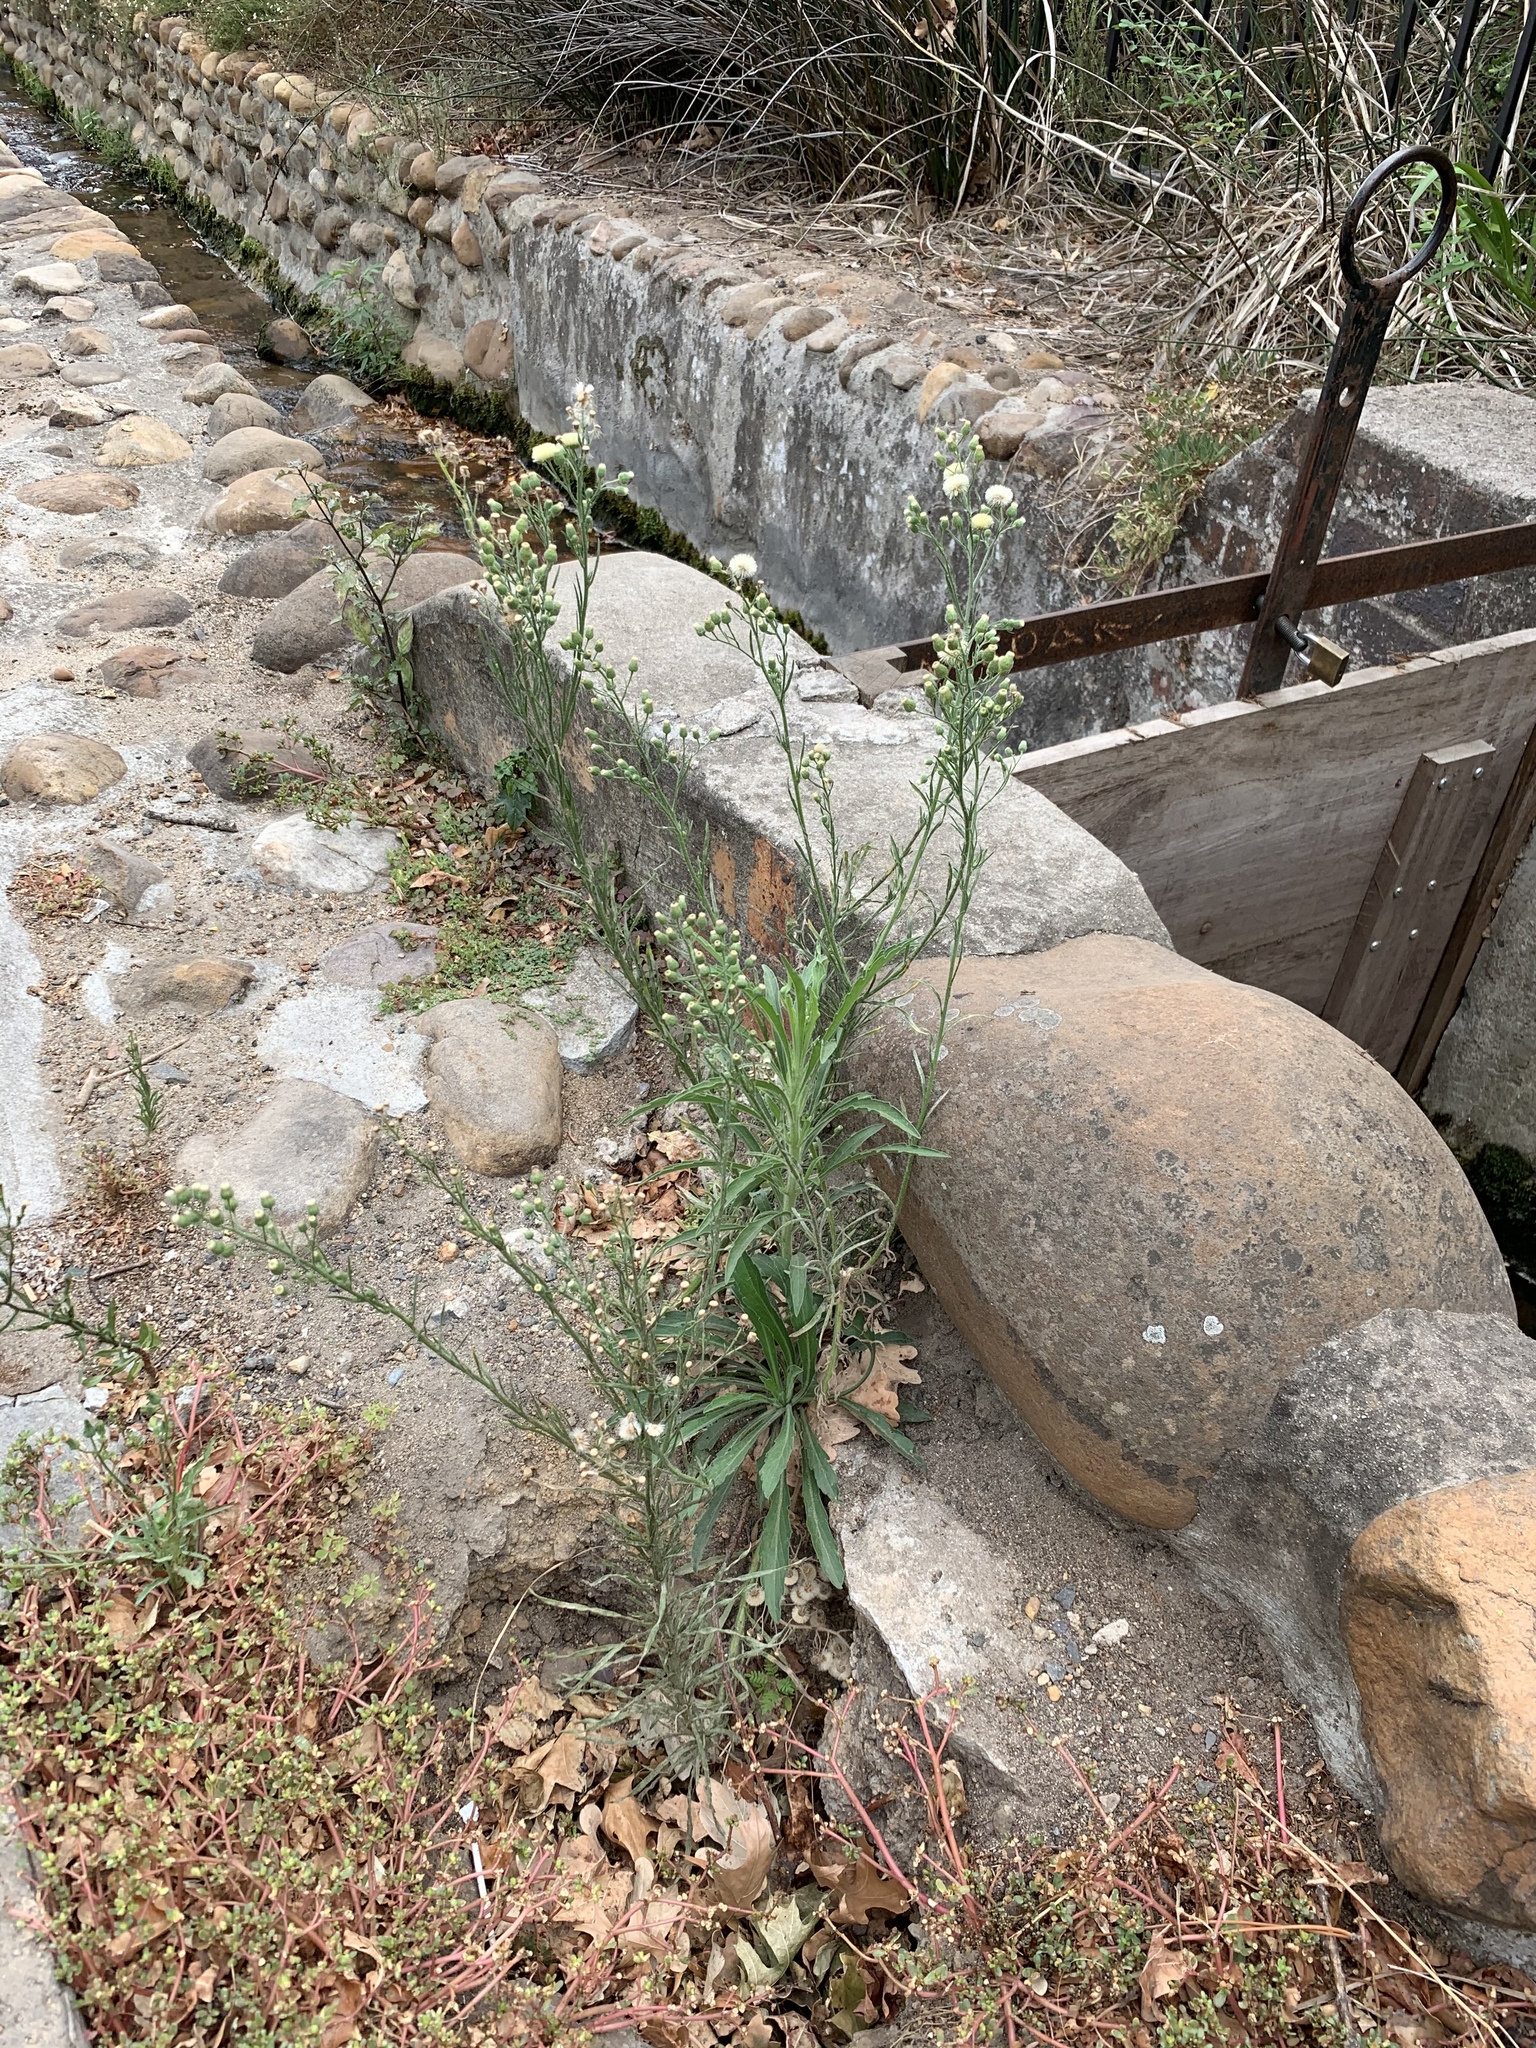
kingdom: Plantae
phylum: Tracheophyta
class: Magnoliopsida
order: Asterales
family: Asteraceae
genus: Erigeron
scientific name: Erigeron bonariensis
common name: Argentine fleabane
